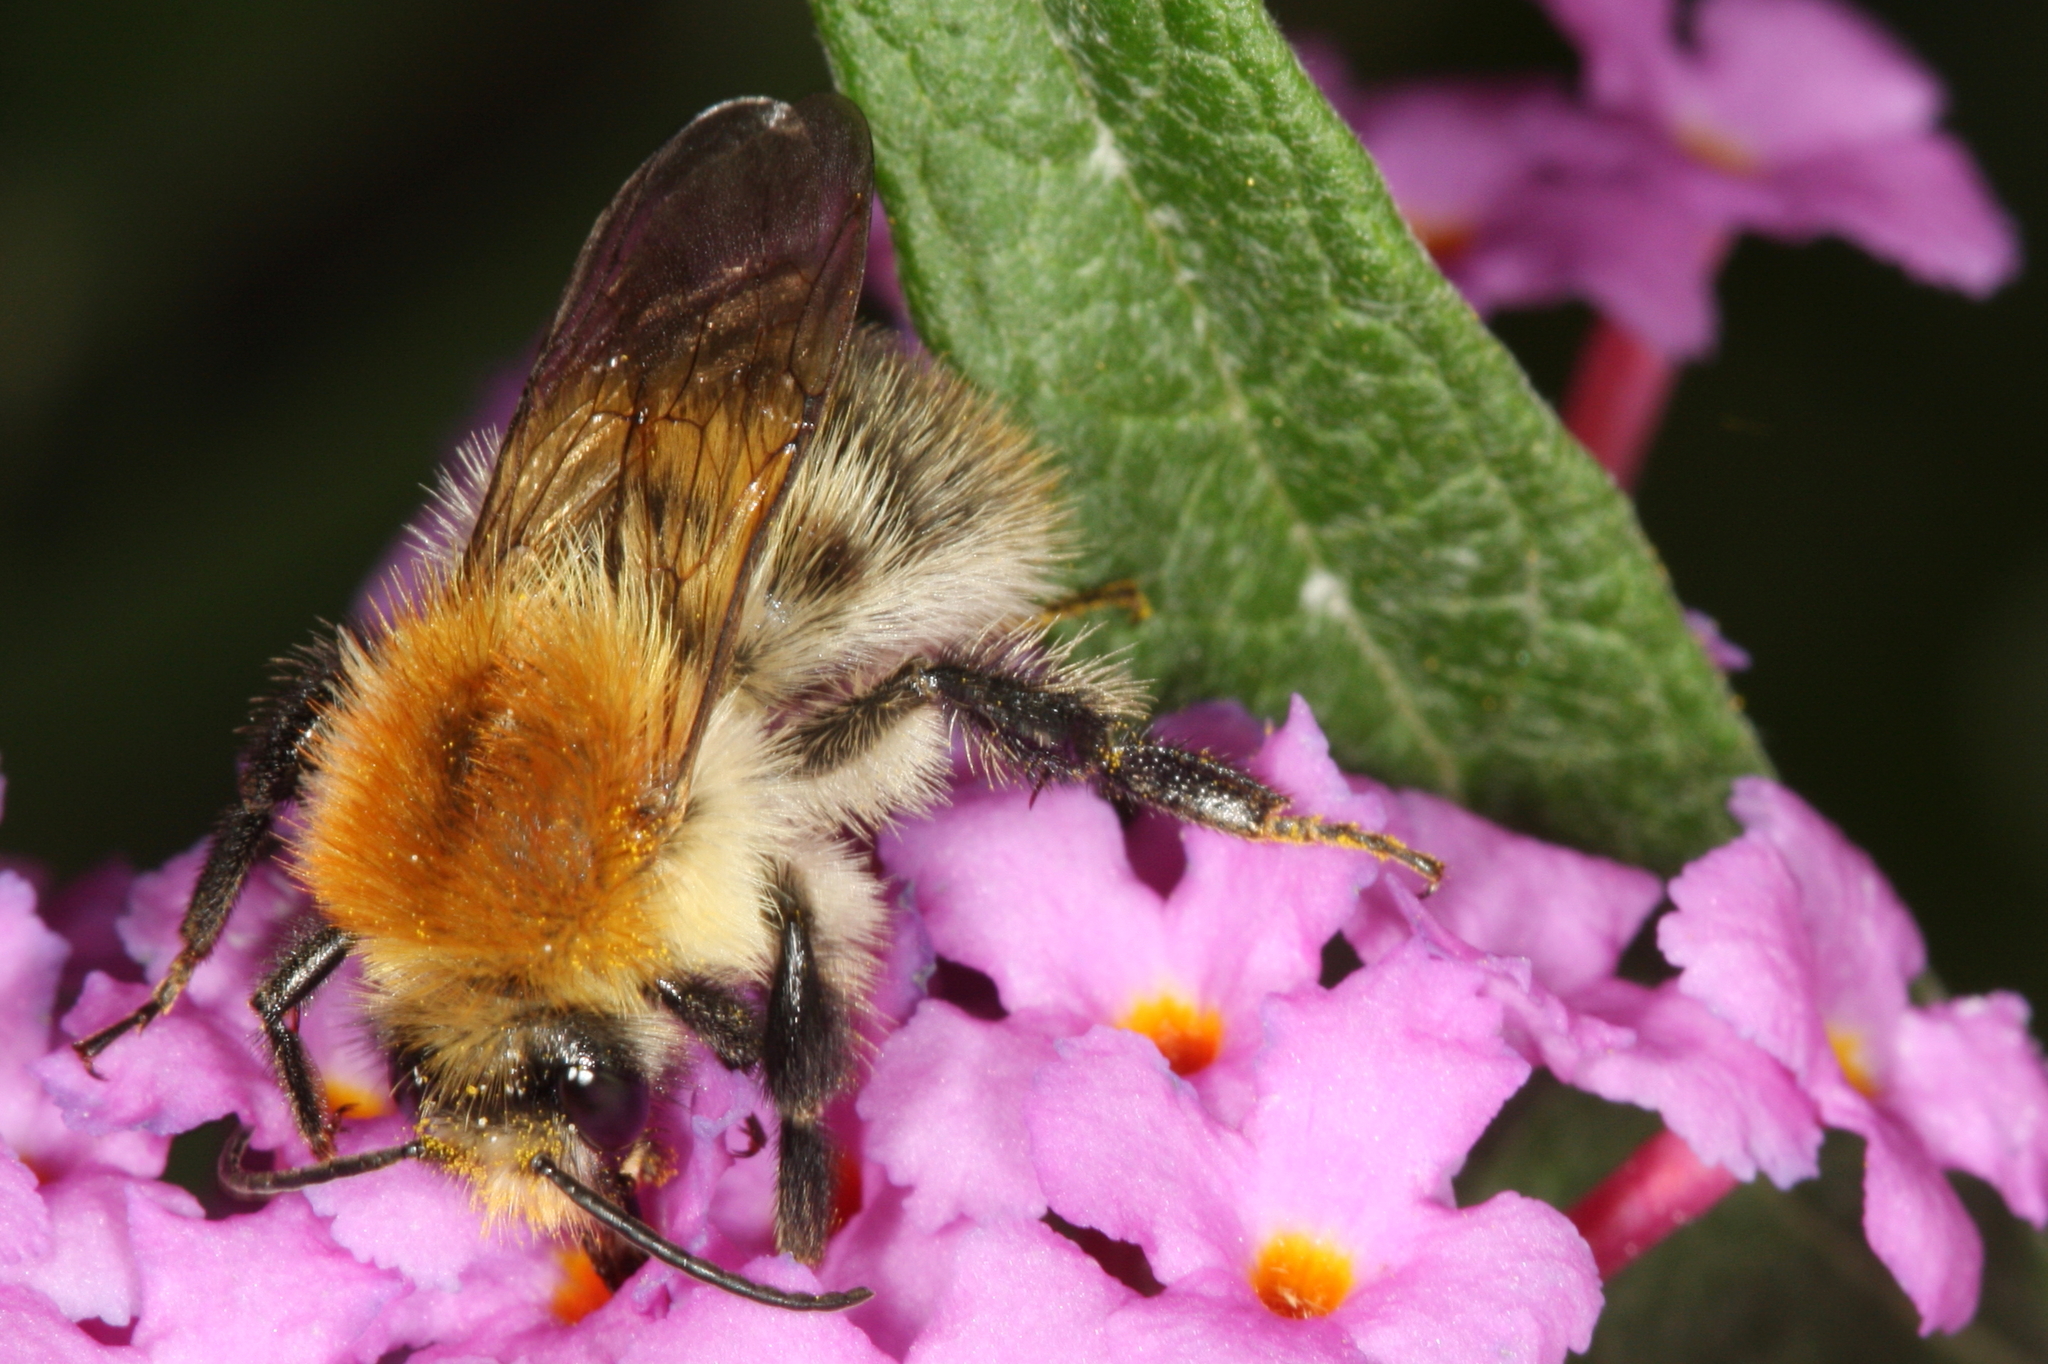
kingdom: Animalia
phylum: Arthropoda
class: Insecta
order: Hymenoptera
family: Apidae
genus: Bombus
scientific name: Bombus pascuorum
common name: Common carder bee
